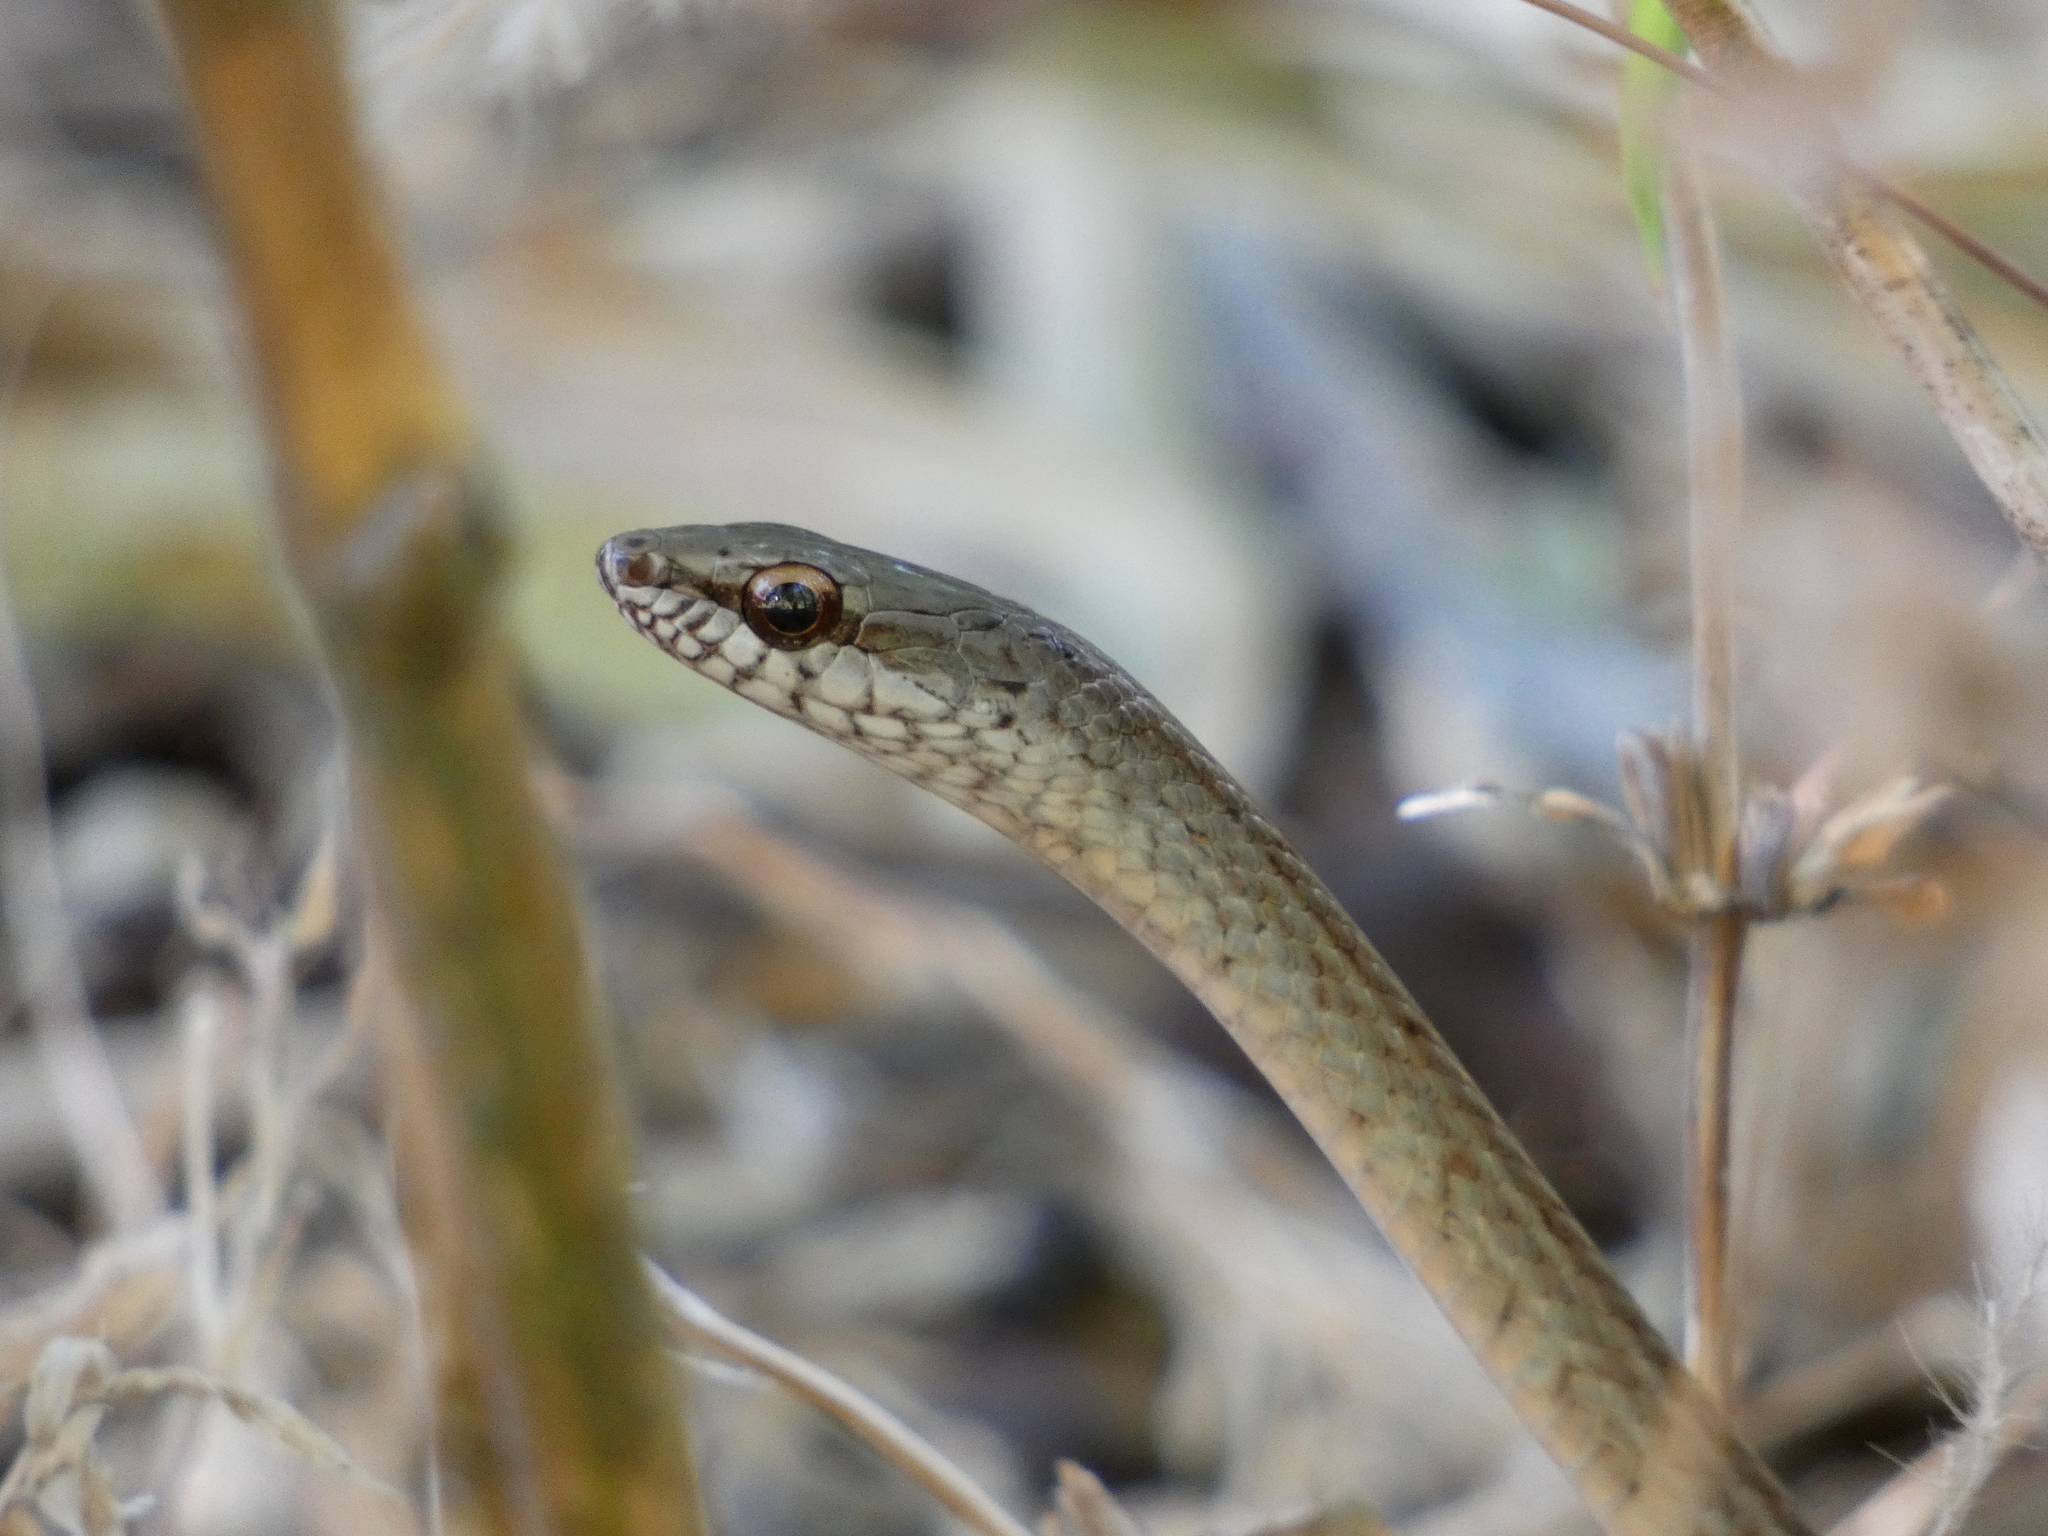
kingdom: Animalia
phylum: Chordata
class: Squamata
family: Colubridae
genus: Mastigodryas
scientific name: Mastigodryas alternatus
